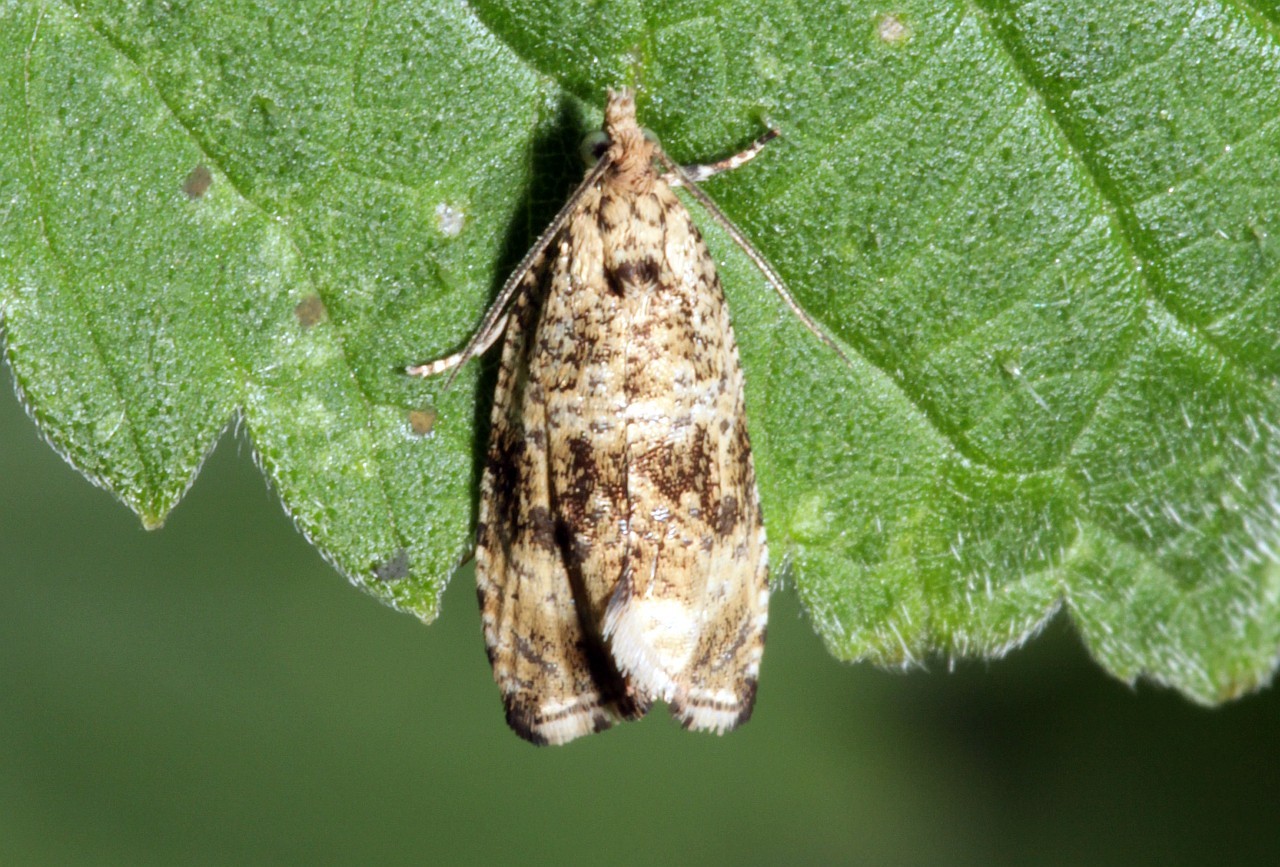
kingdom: Animalia
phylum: Arthropoda
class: Insecta
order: Lepidoptera
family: Tortricidae
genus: Syricoris
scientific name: Syricoris lacunana
